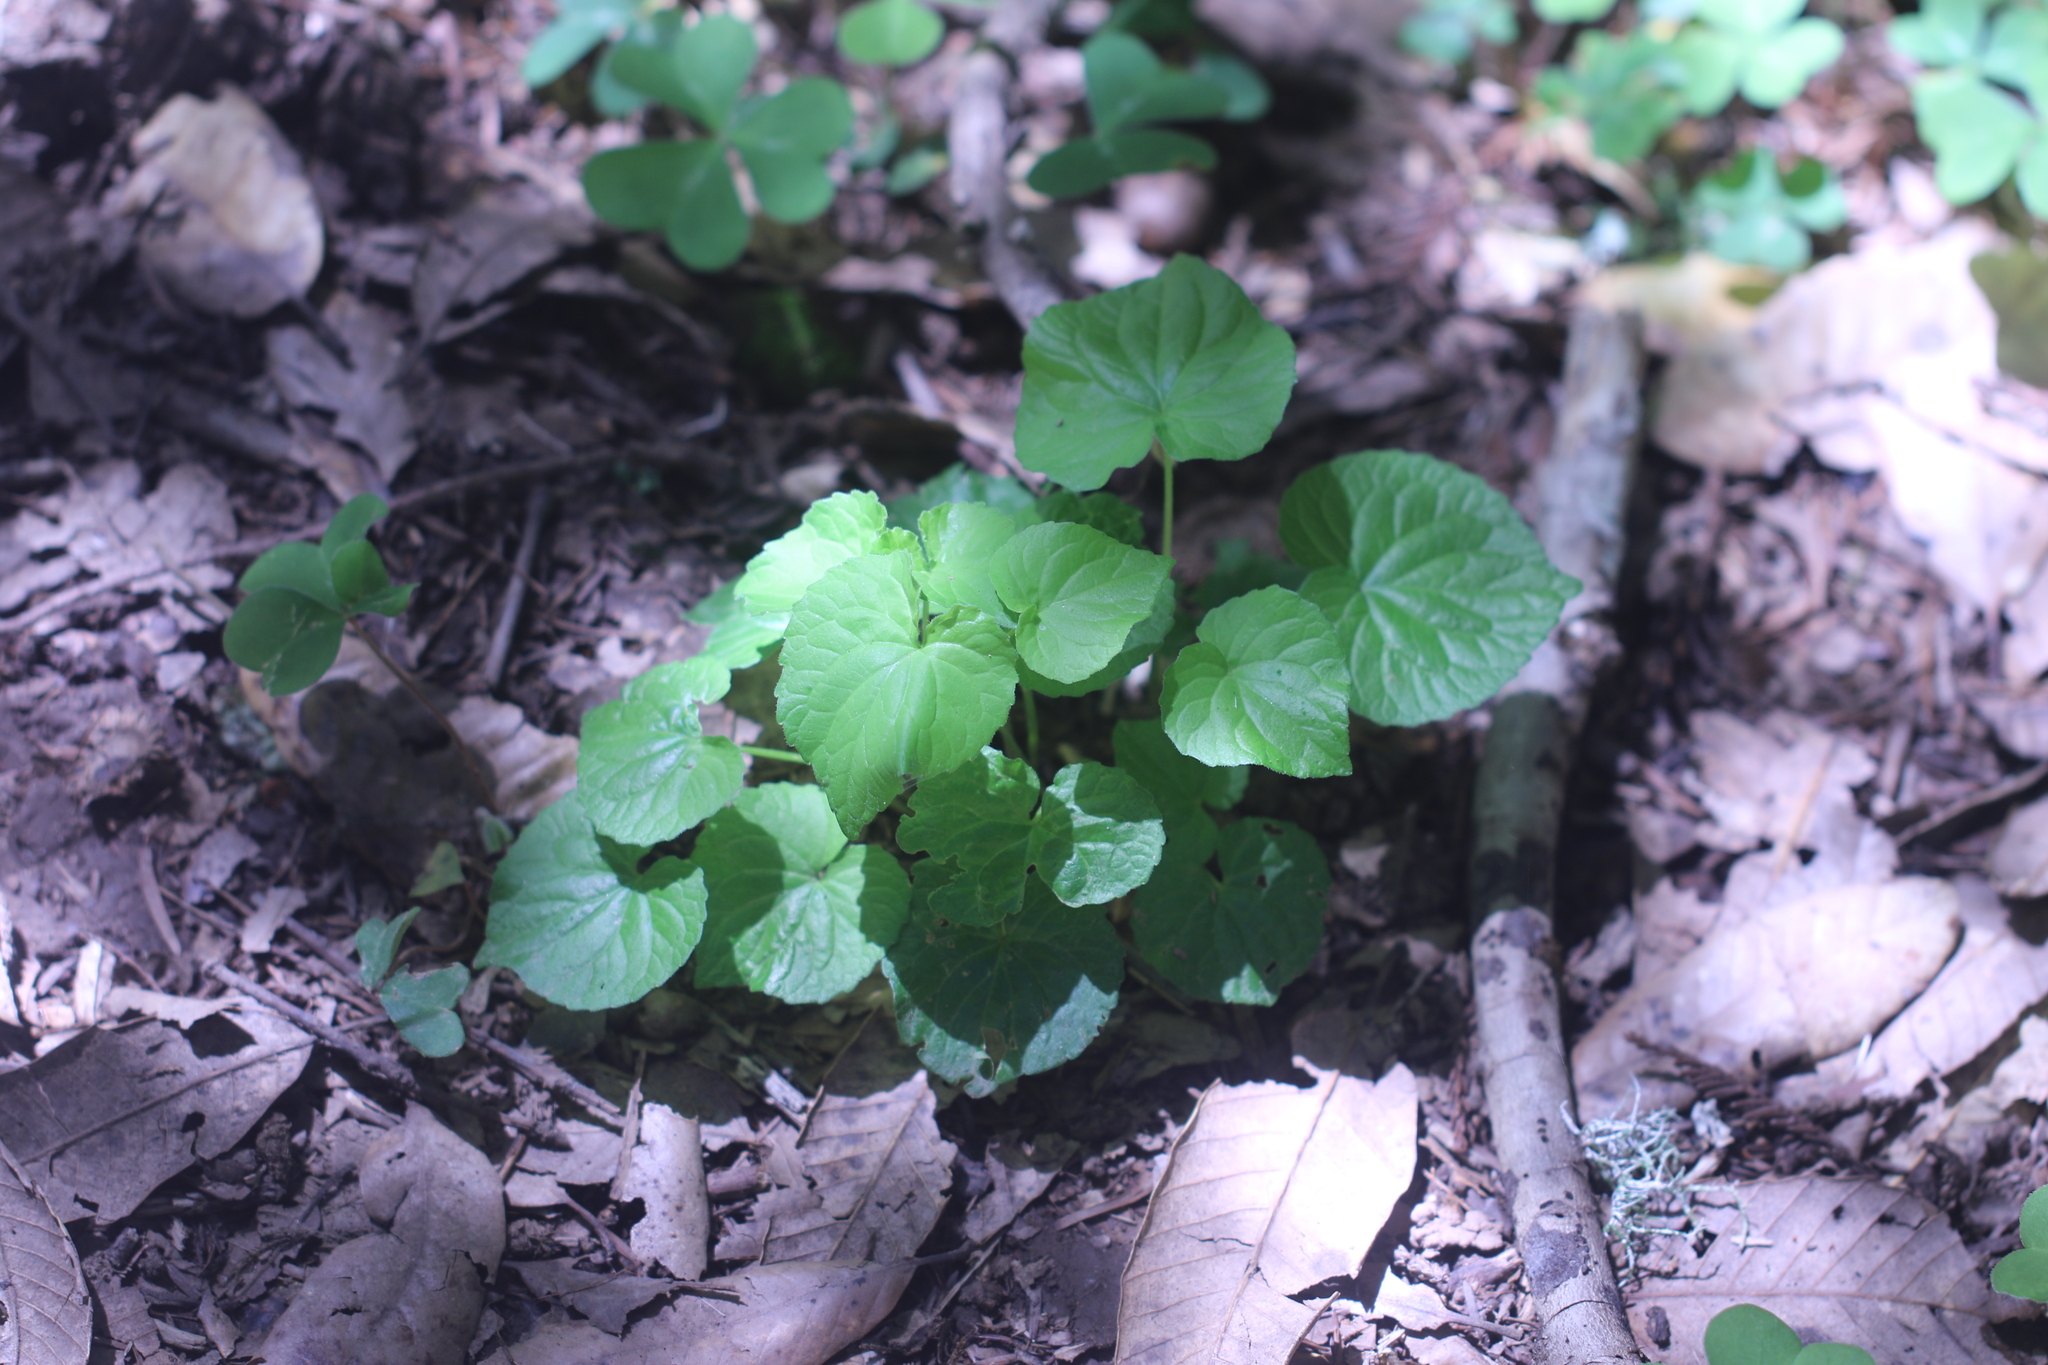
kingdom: Plantae
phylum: Tracheophyta
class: Magnoliopsida
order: Malpighiales
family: Violaceae
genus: Viola
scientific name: Viola glabella
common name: Stream violet
